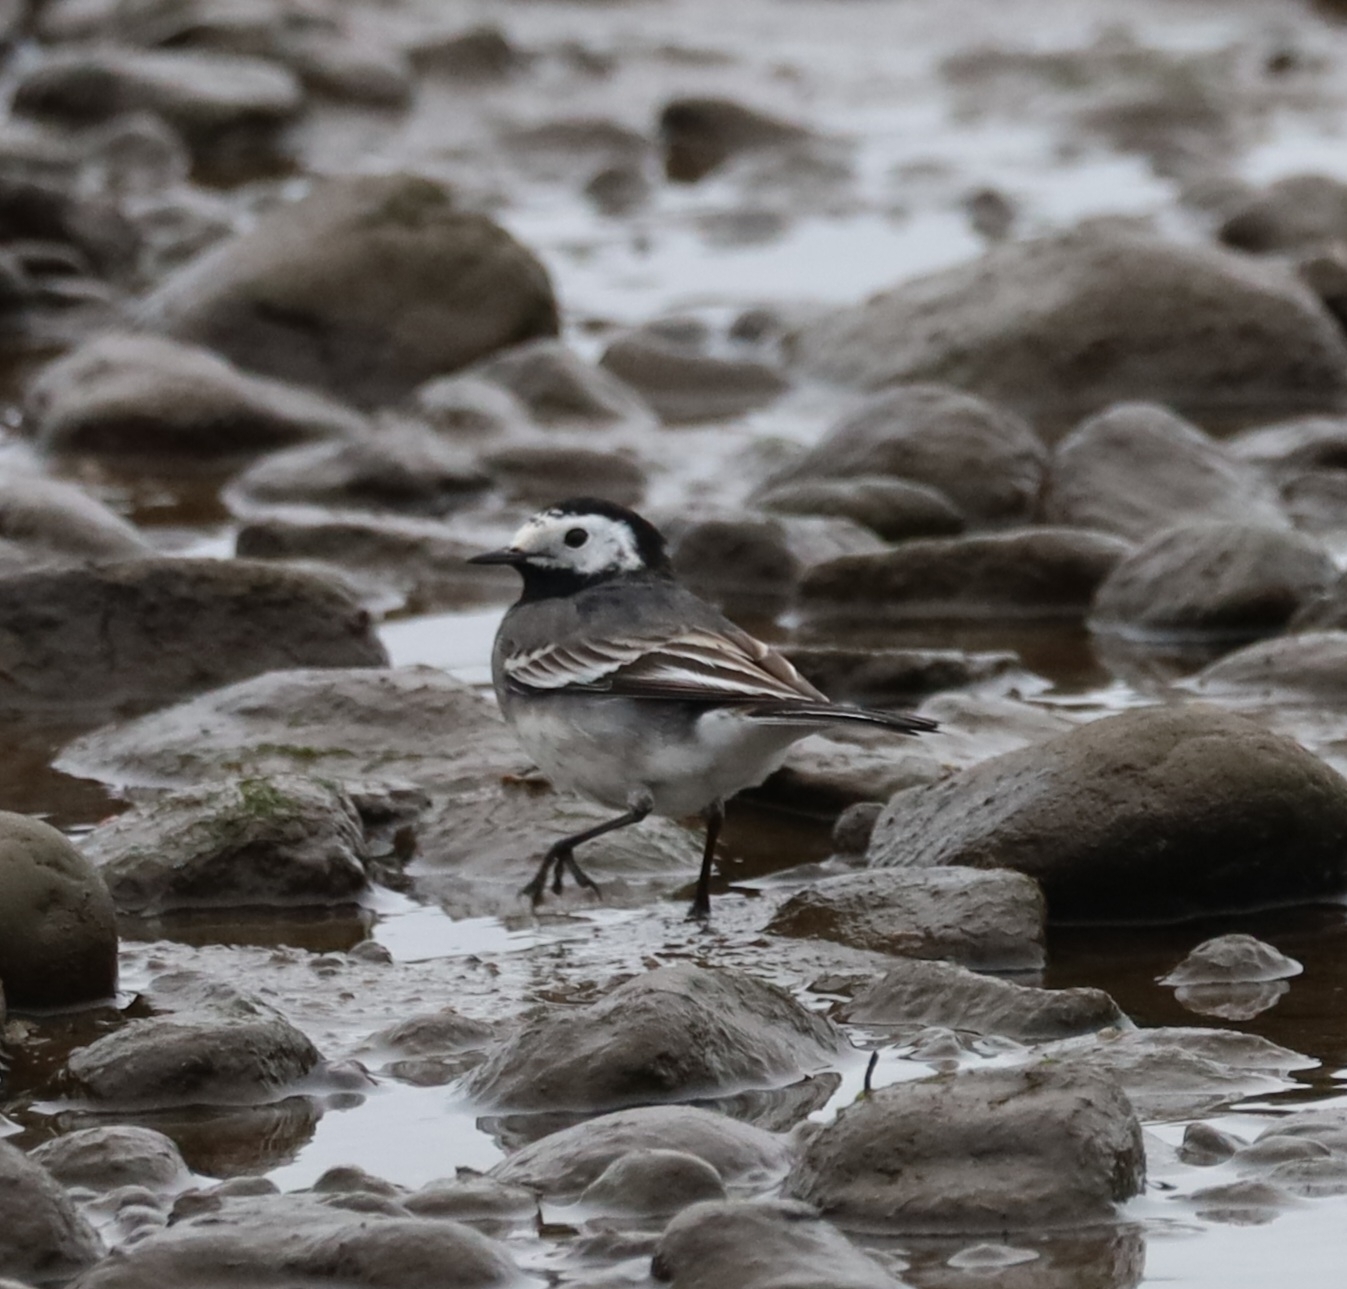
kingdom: Animalia
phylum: Chordata
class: Aves
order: Passeriformes
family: Motacillidae
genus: Motacilla
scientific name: Motacilla alba
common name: White wagtail
